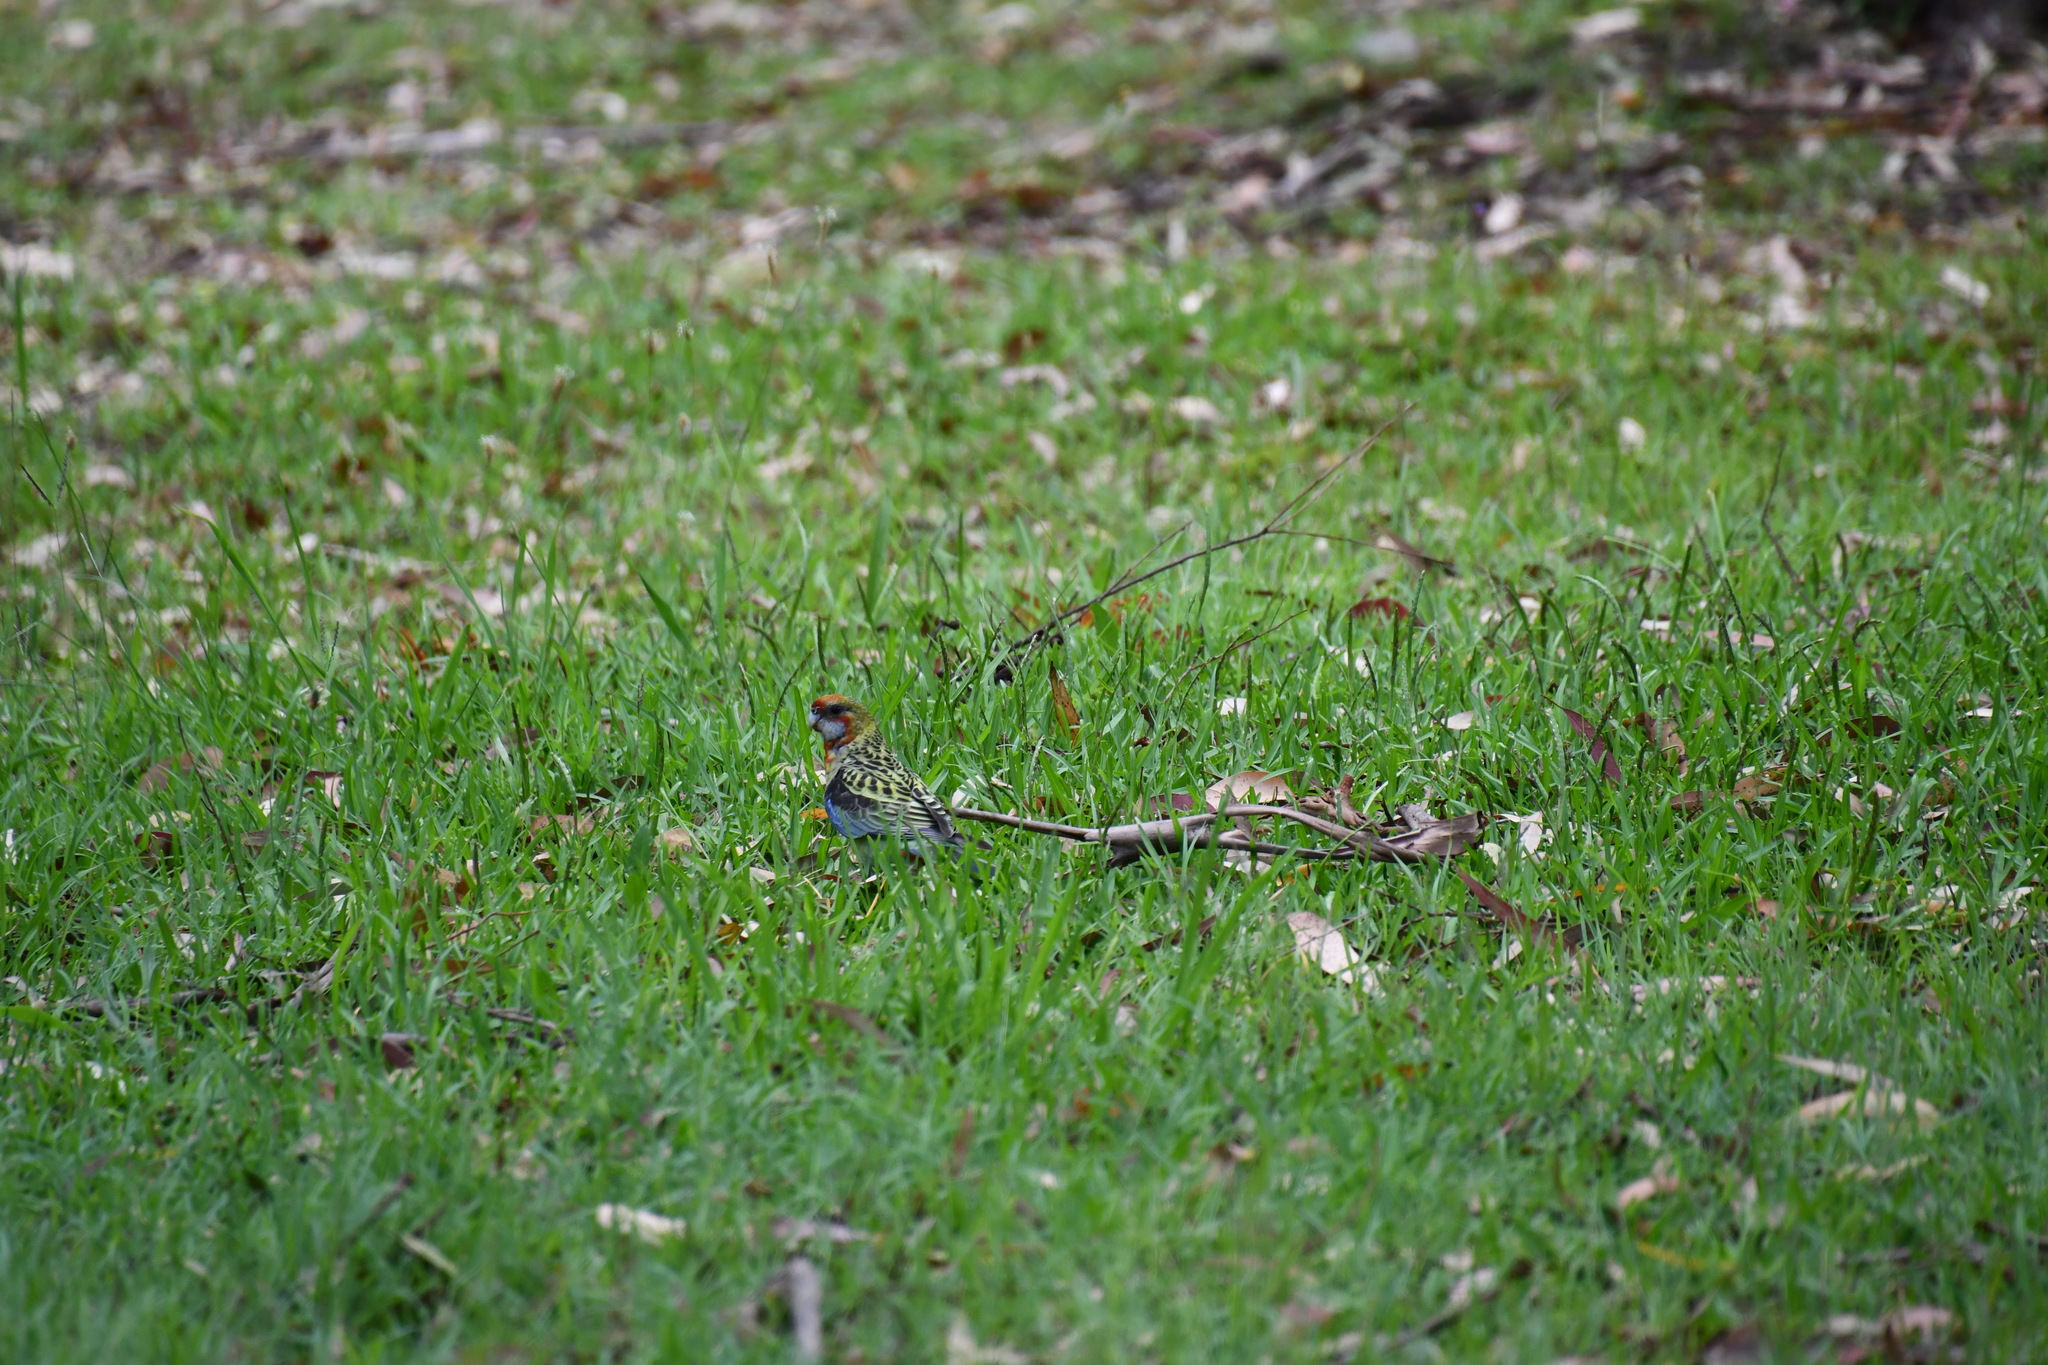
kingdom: Animalia
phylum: Chordata
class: Aves
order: Psittaciformes
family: Psittacidae
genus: Platycercus
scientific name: Platycercus eximius
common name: Eastern rosella
